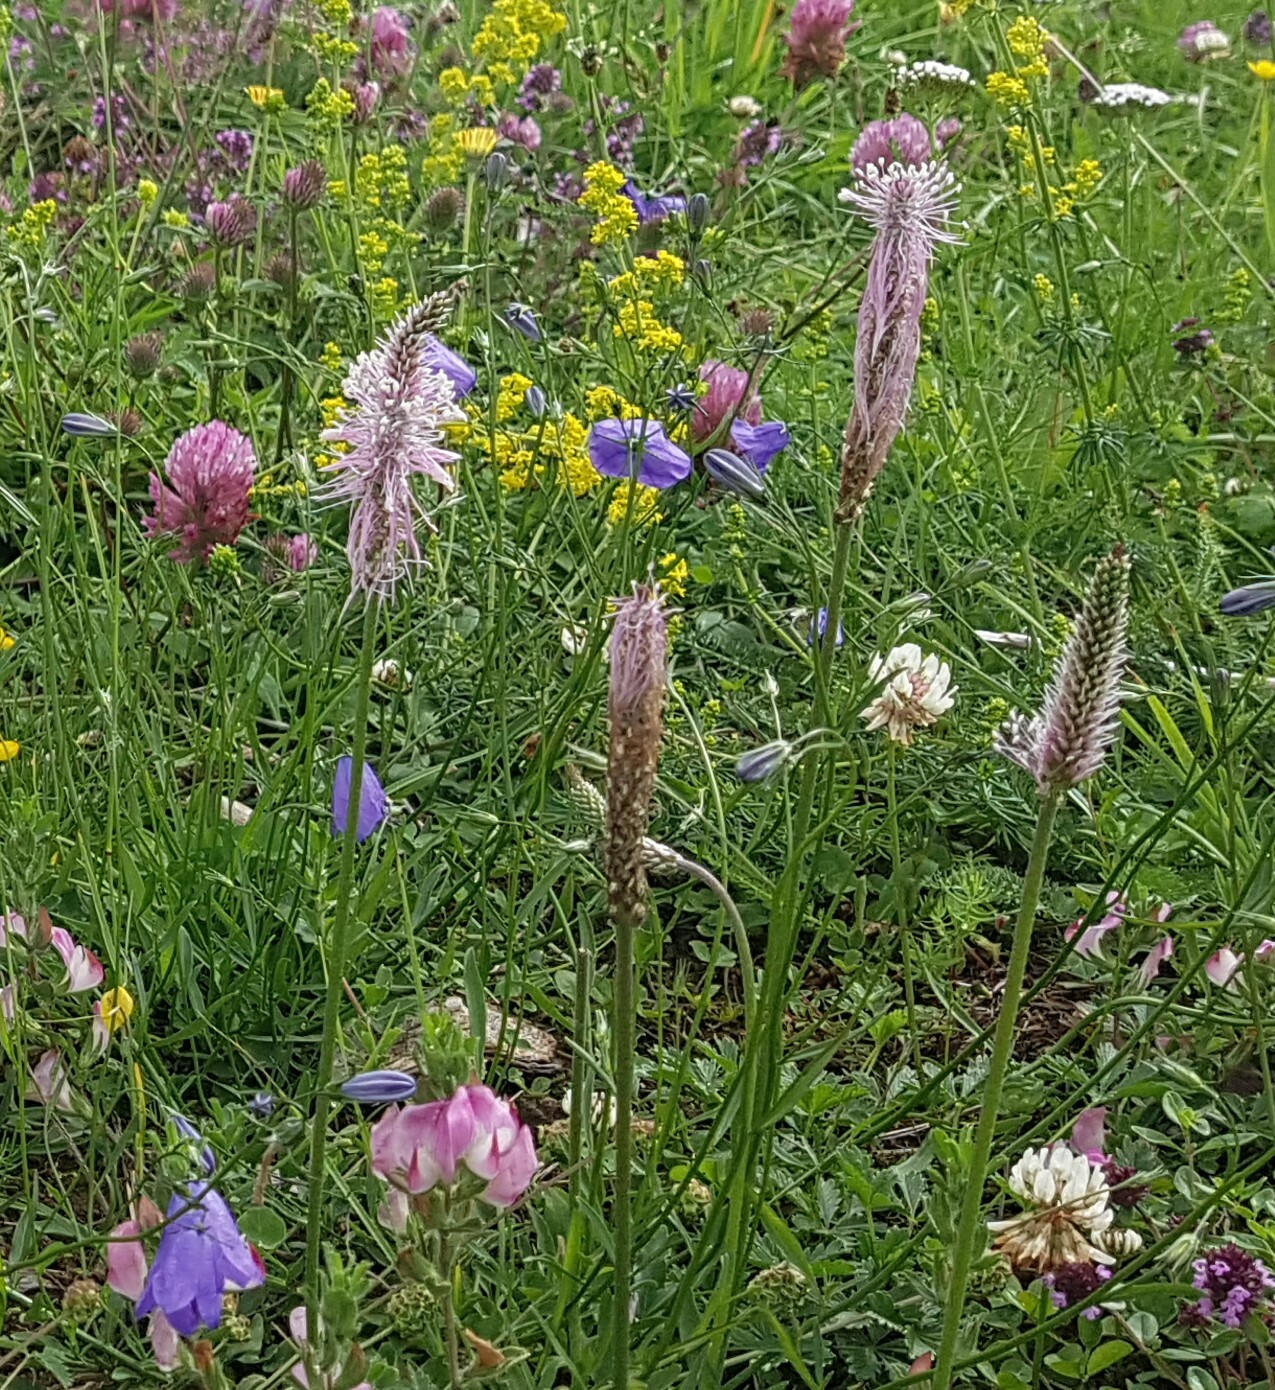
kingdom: Plantae
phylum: Tracheophyta
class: Magnoliopsida
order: Lamiales
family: Plantaginaceae
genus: Plantago
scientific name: Plantago media
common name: Hoary plantain
